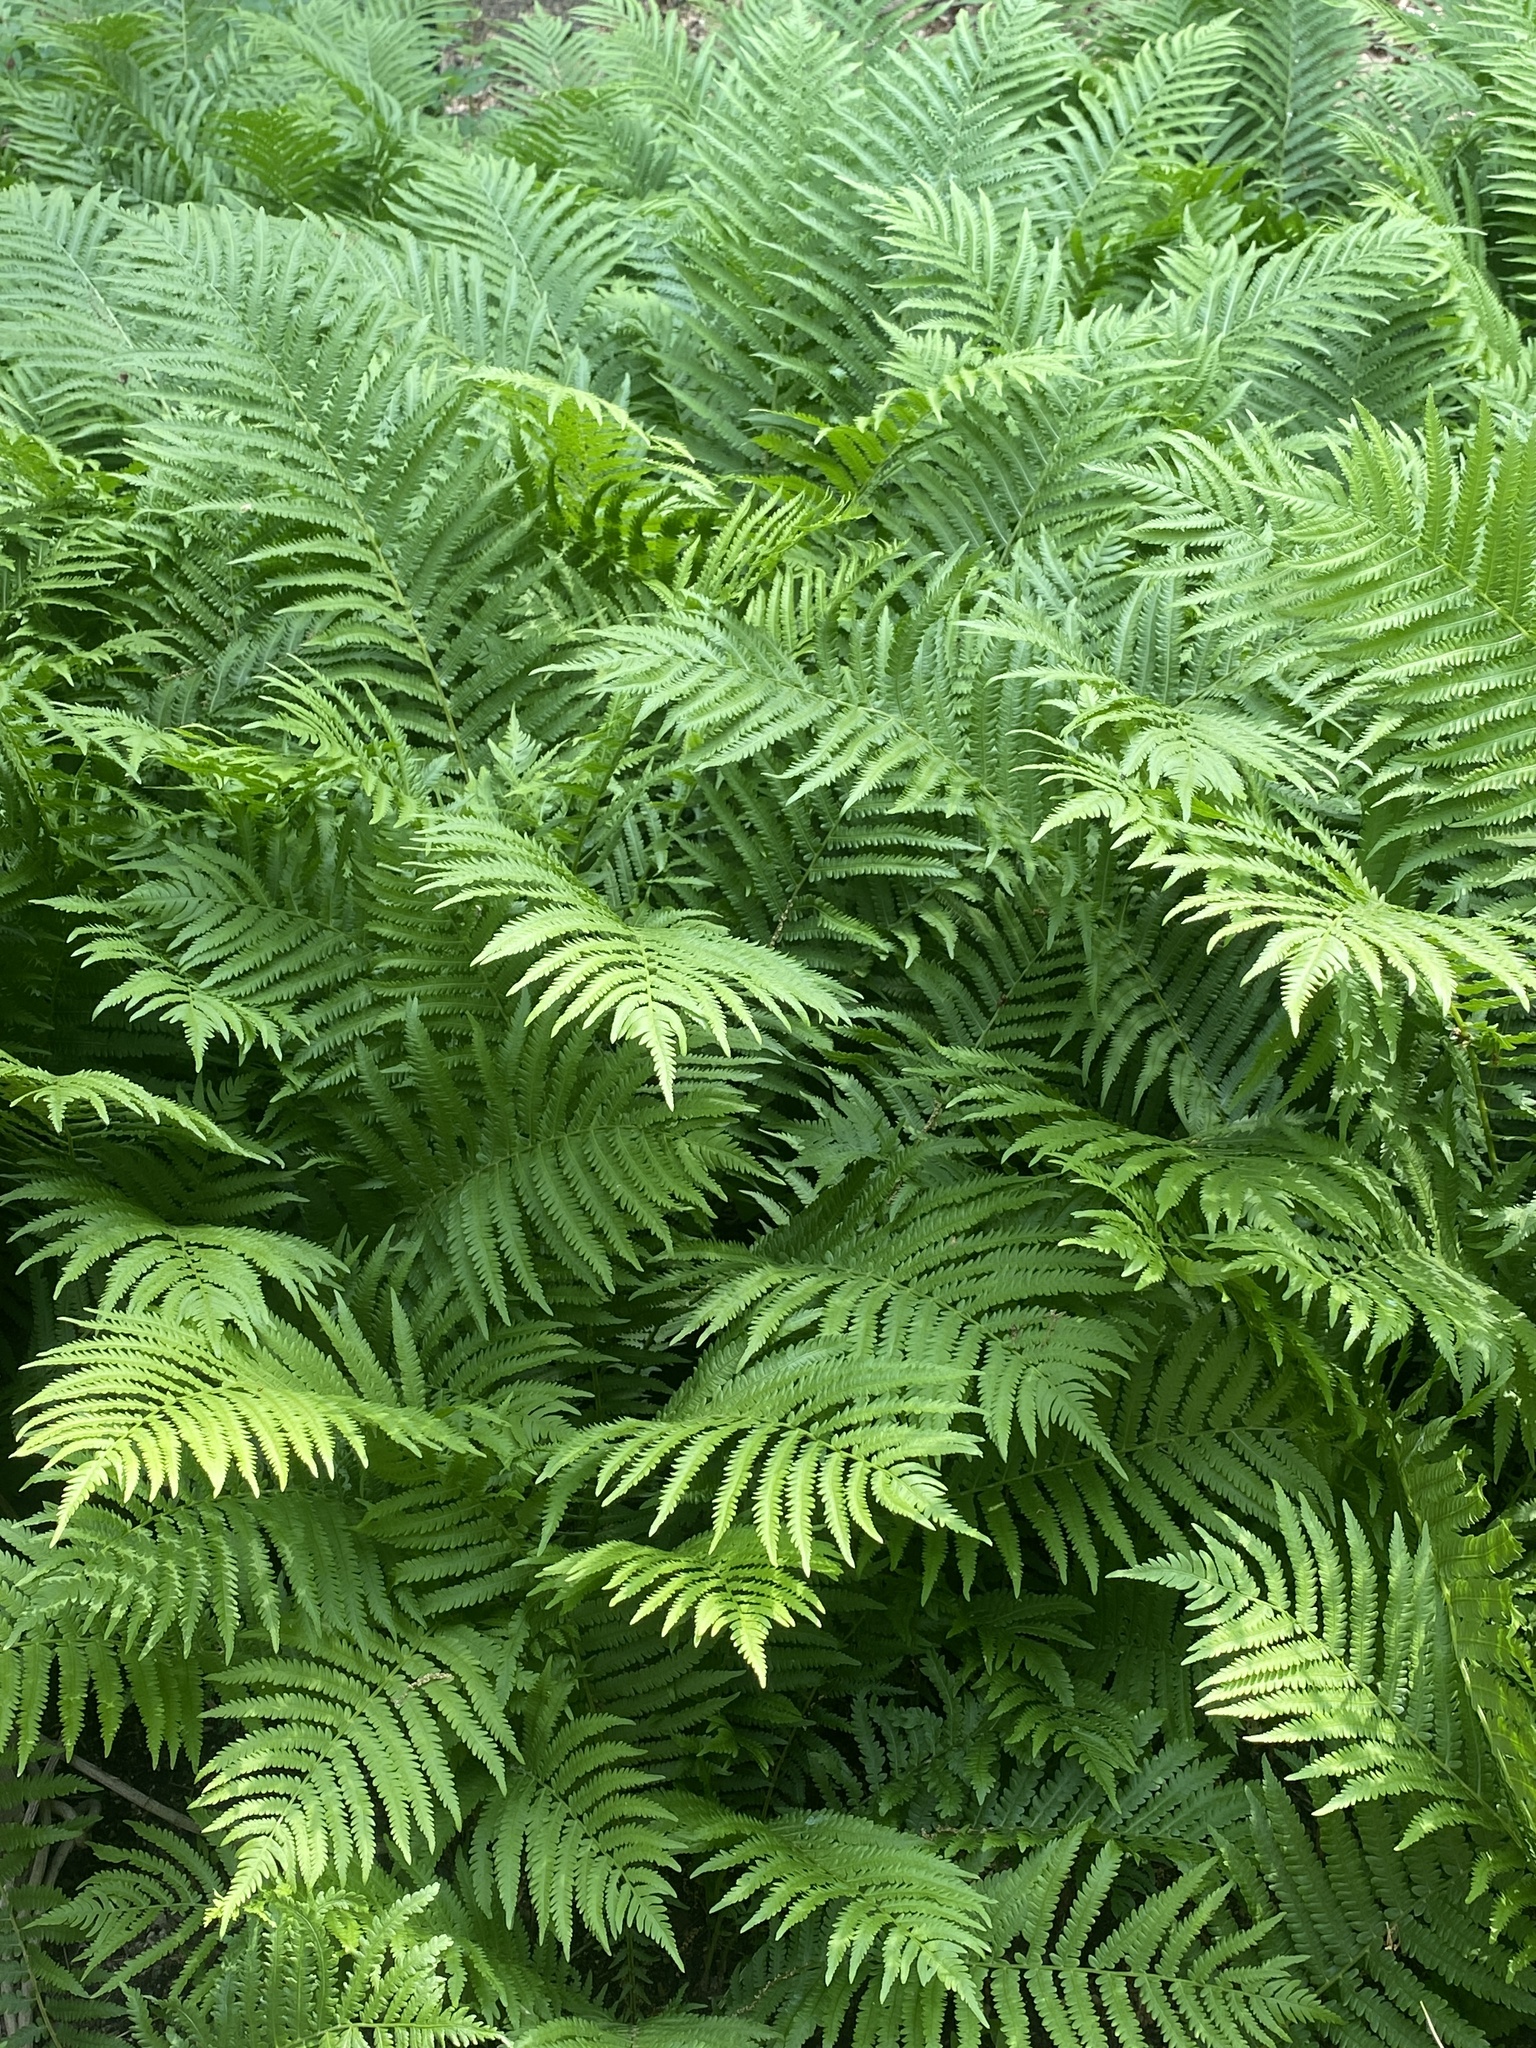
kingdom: Plantae
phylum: Tracheophyta
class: Polypodiopsida
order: Polypodiales
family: Onocleaceae
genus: Matteuccia
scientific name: Matteuccia struthiopteris
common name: Ostrich fern
